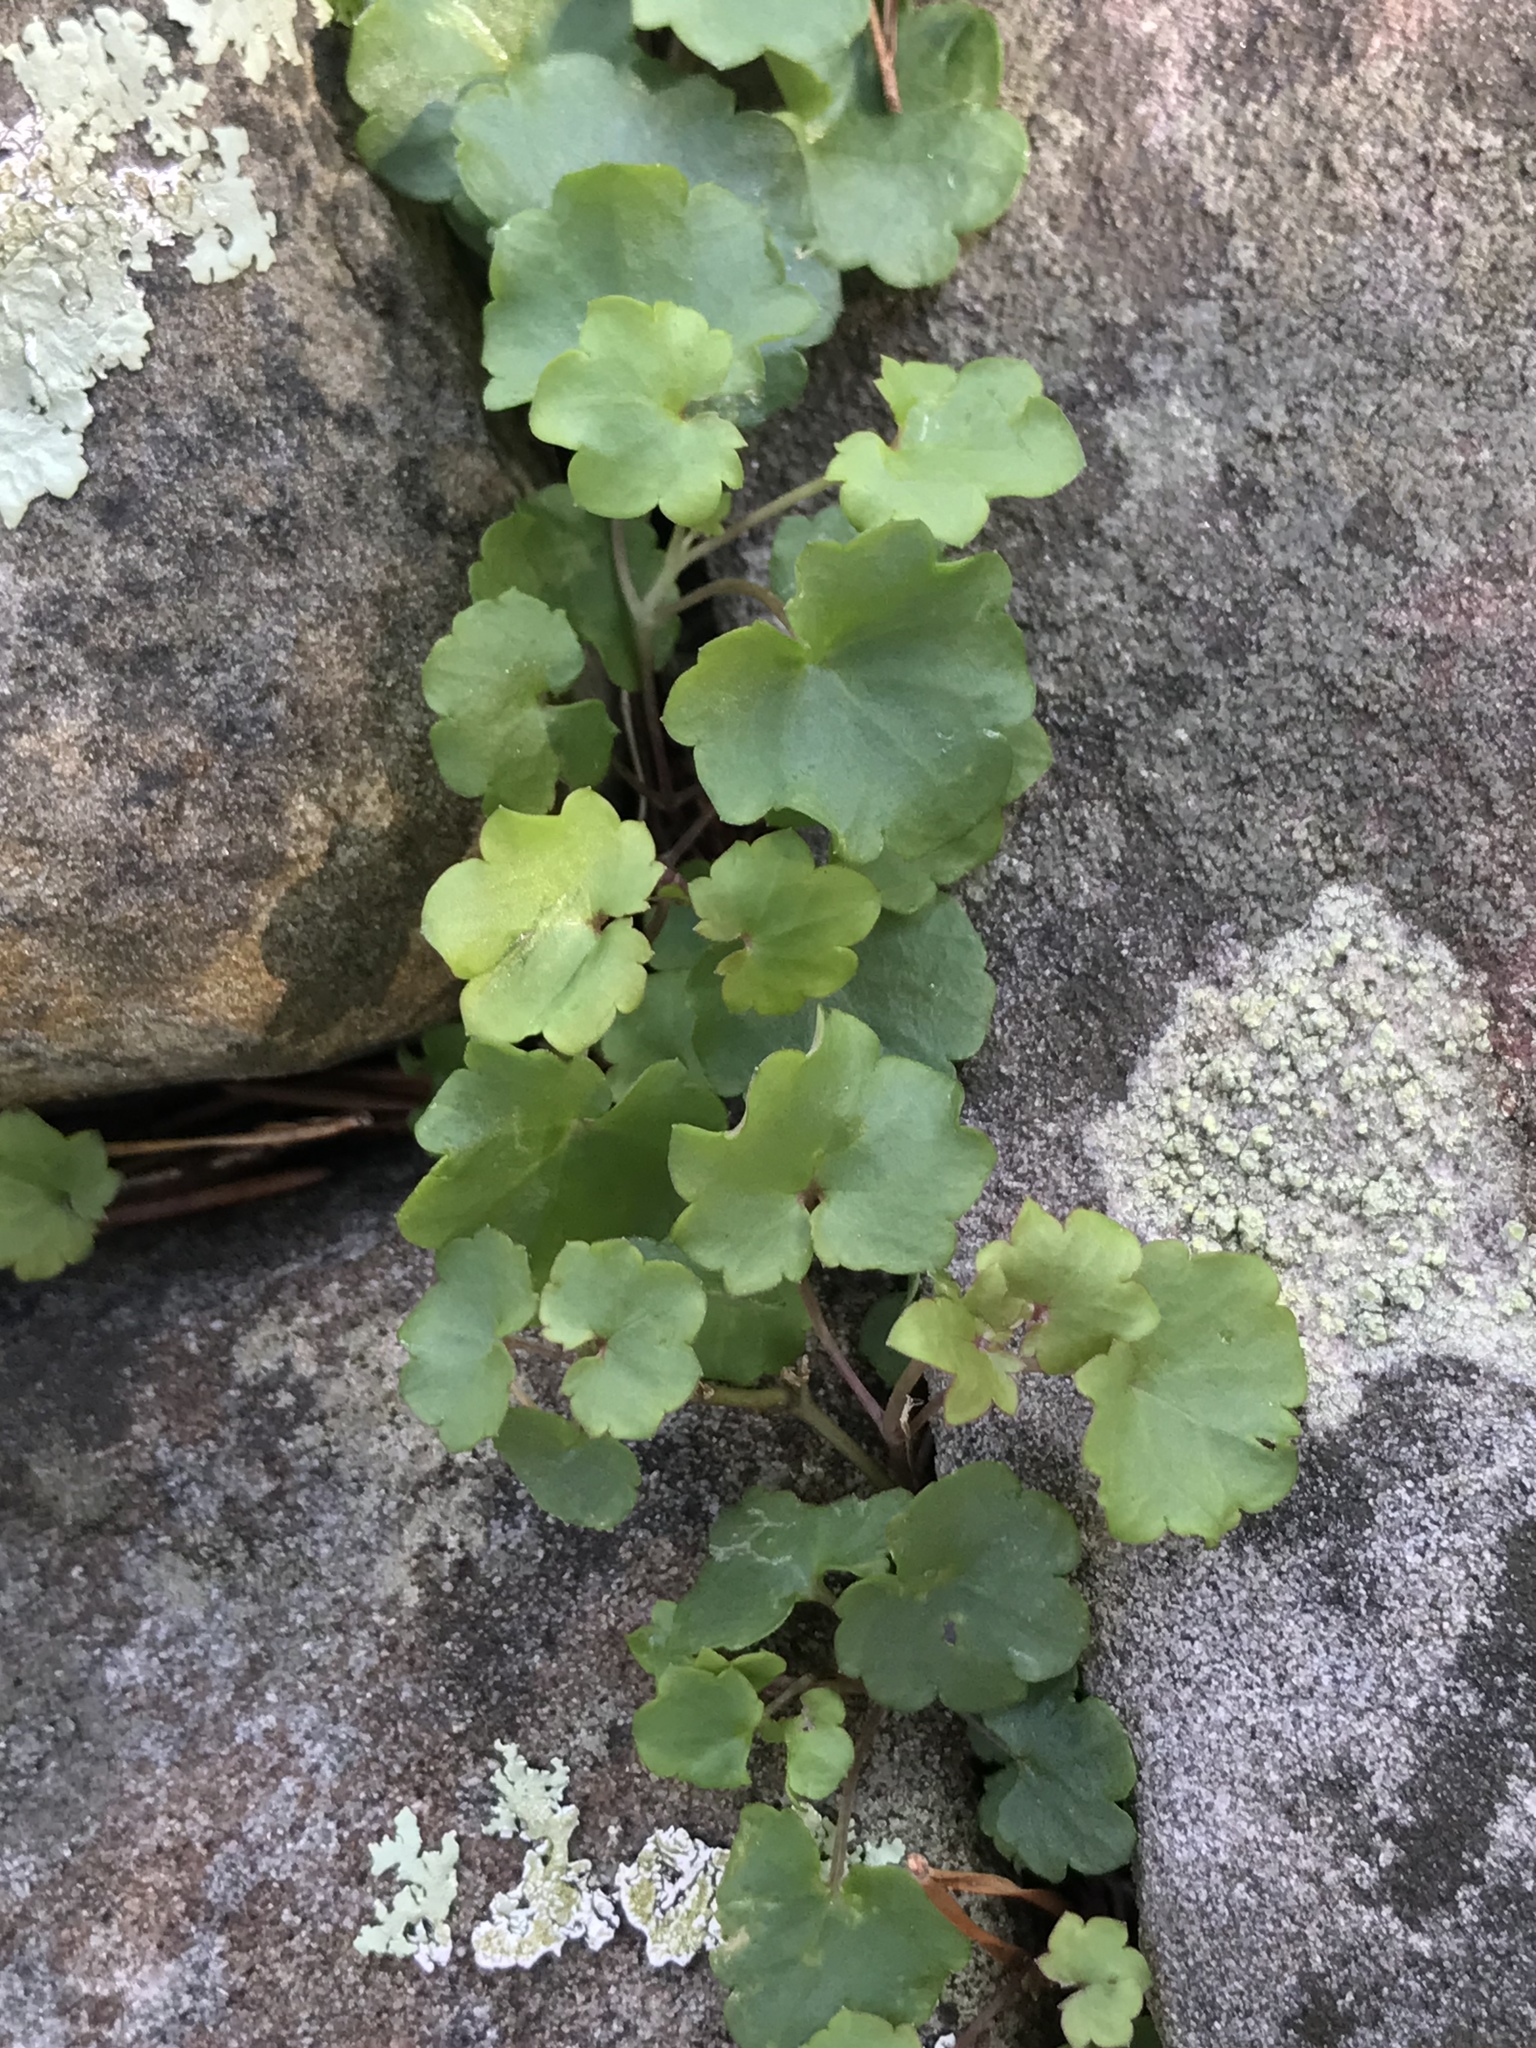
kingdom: Plantae
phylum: Tracheophyta
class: Magnoliopsida
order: Lamiales
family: Plantaginaceae
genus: Cymbalaria
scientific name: Cymbalaria muralis
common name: Ivy-leaved toadflax
